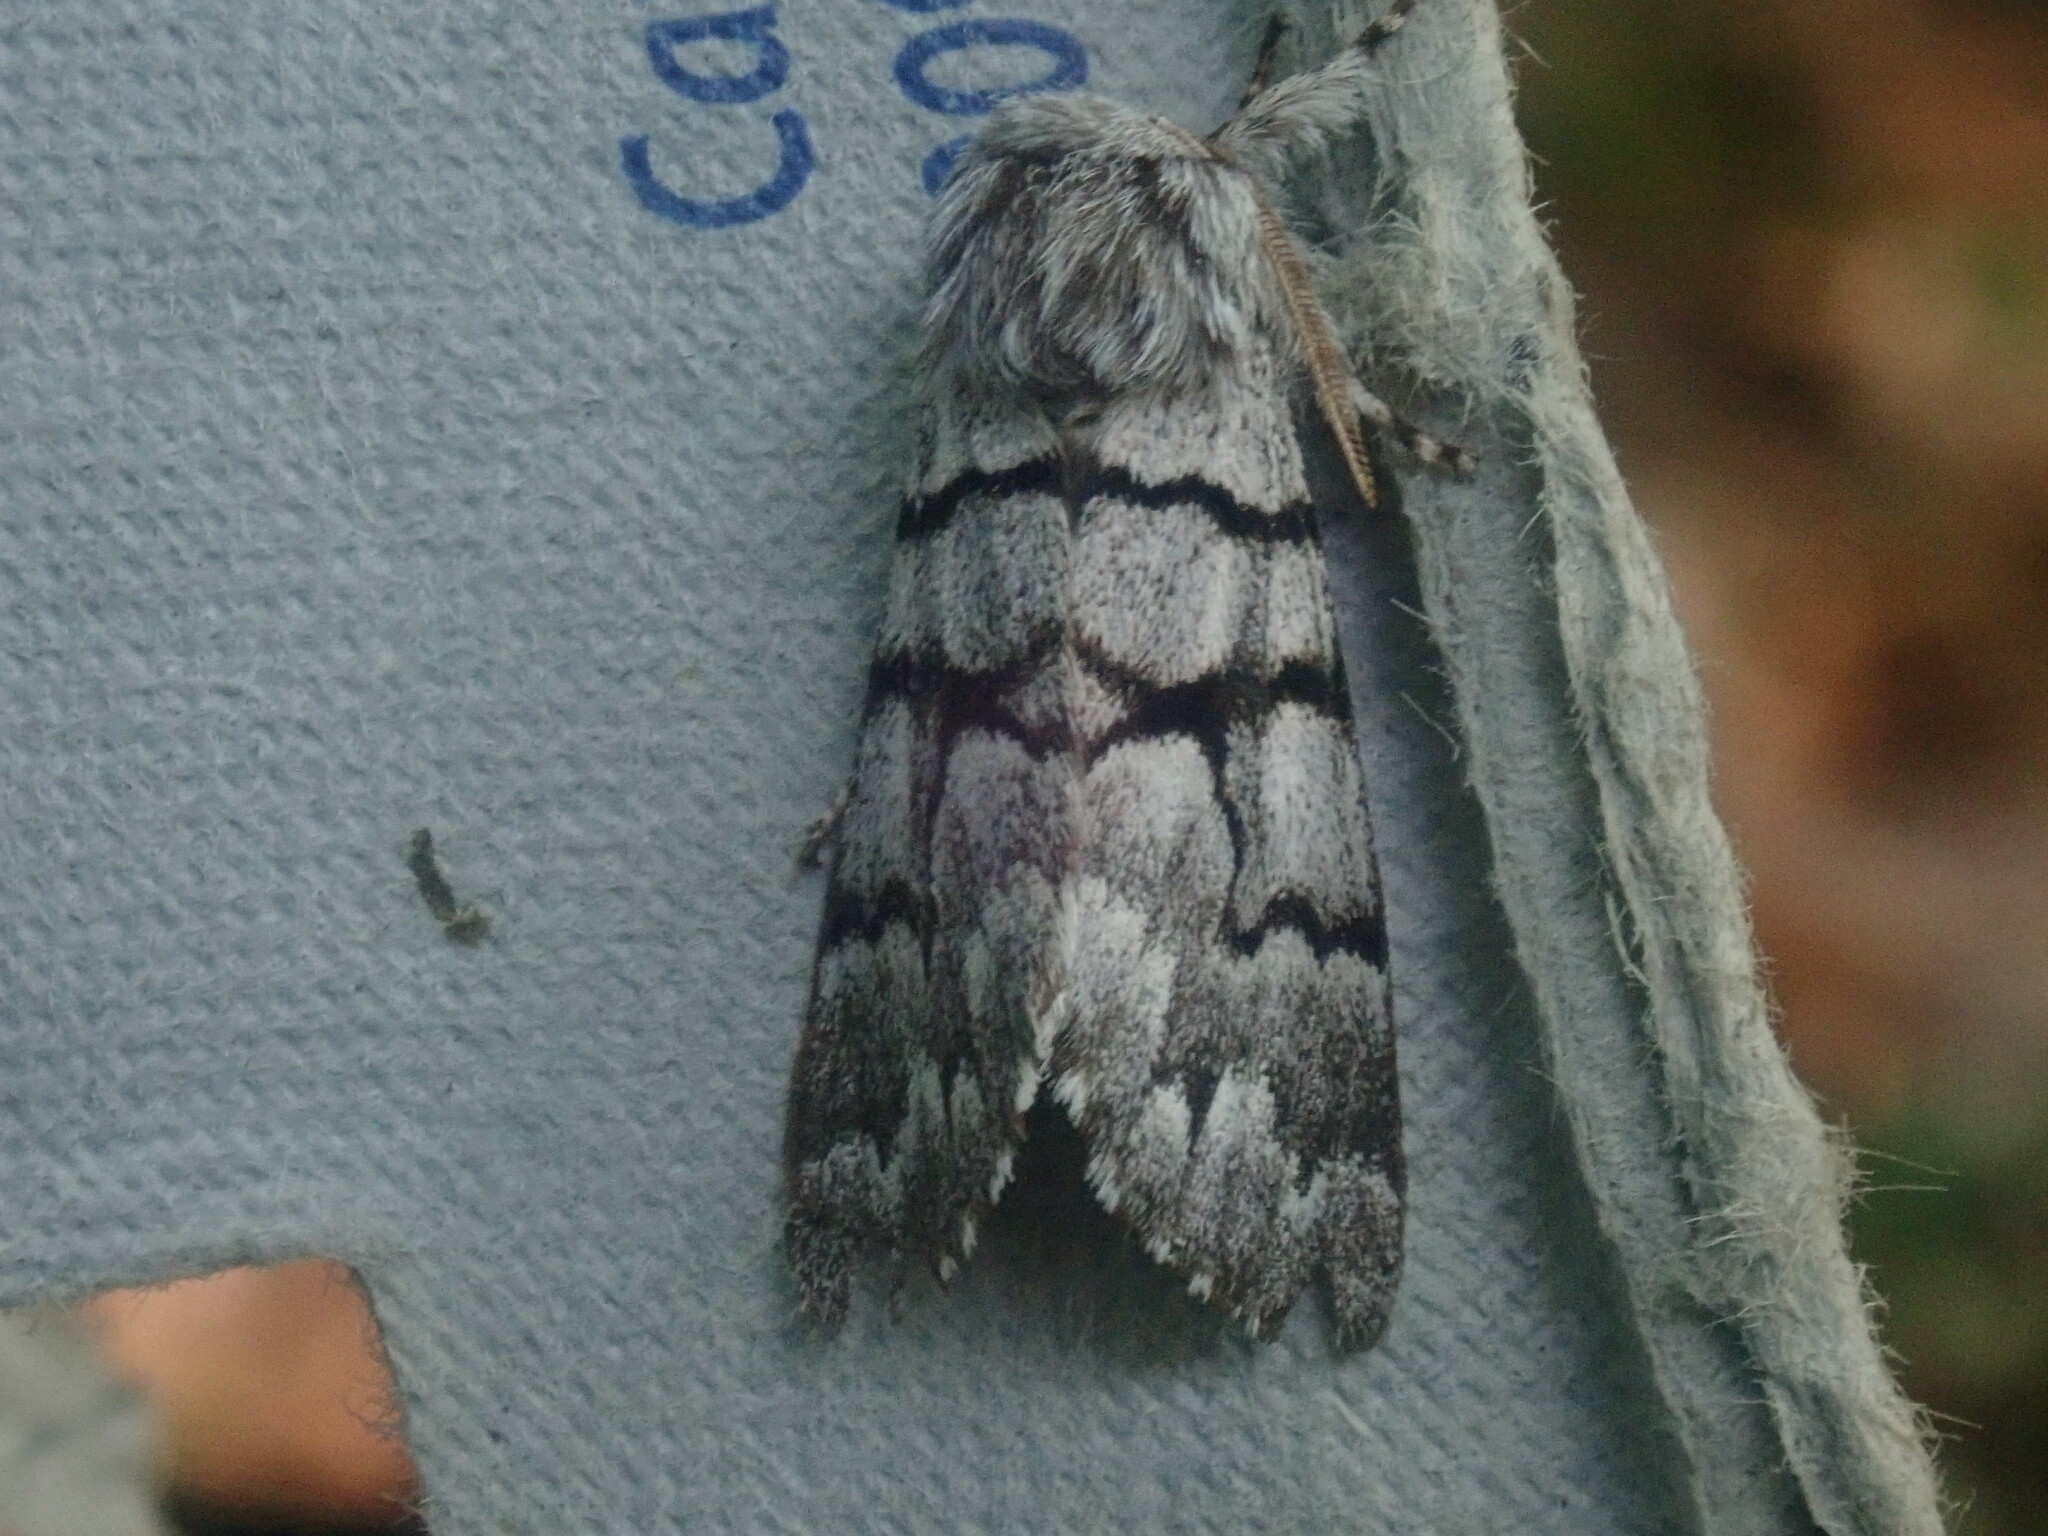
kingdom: Animalia
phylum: Arthropoda
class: Insecta
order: Lepidoptera
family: Noctuidae
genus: Panthea
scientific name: Panthea furcilla
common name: Eastern panthea moth
